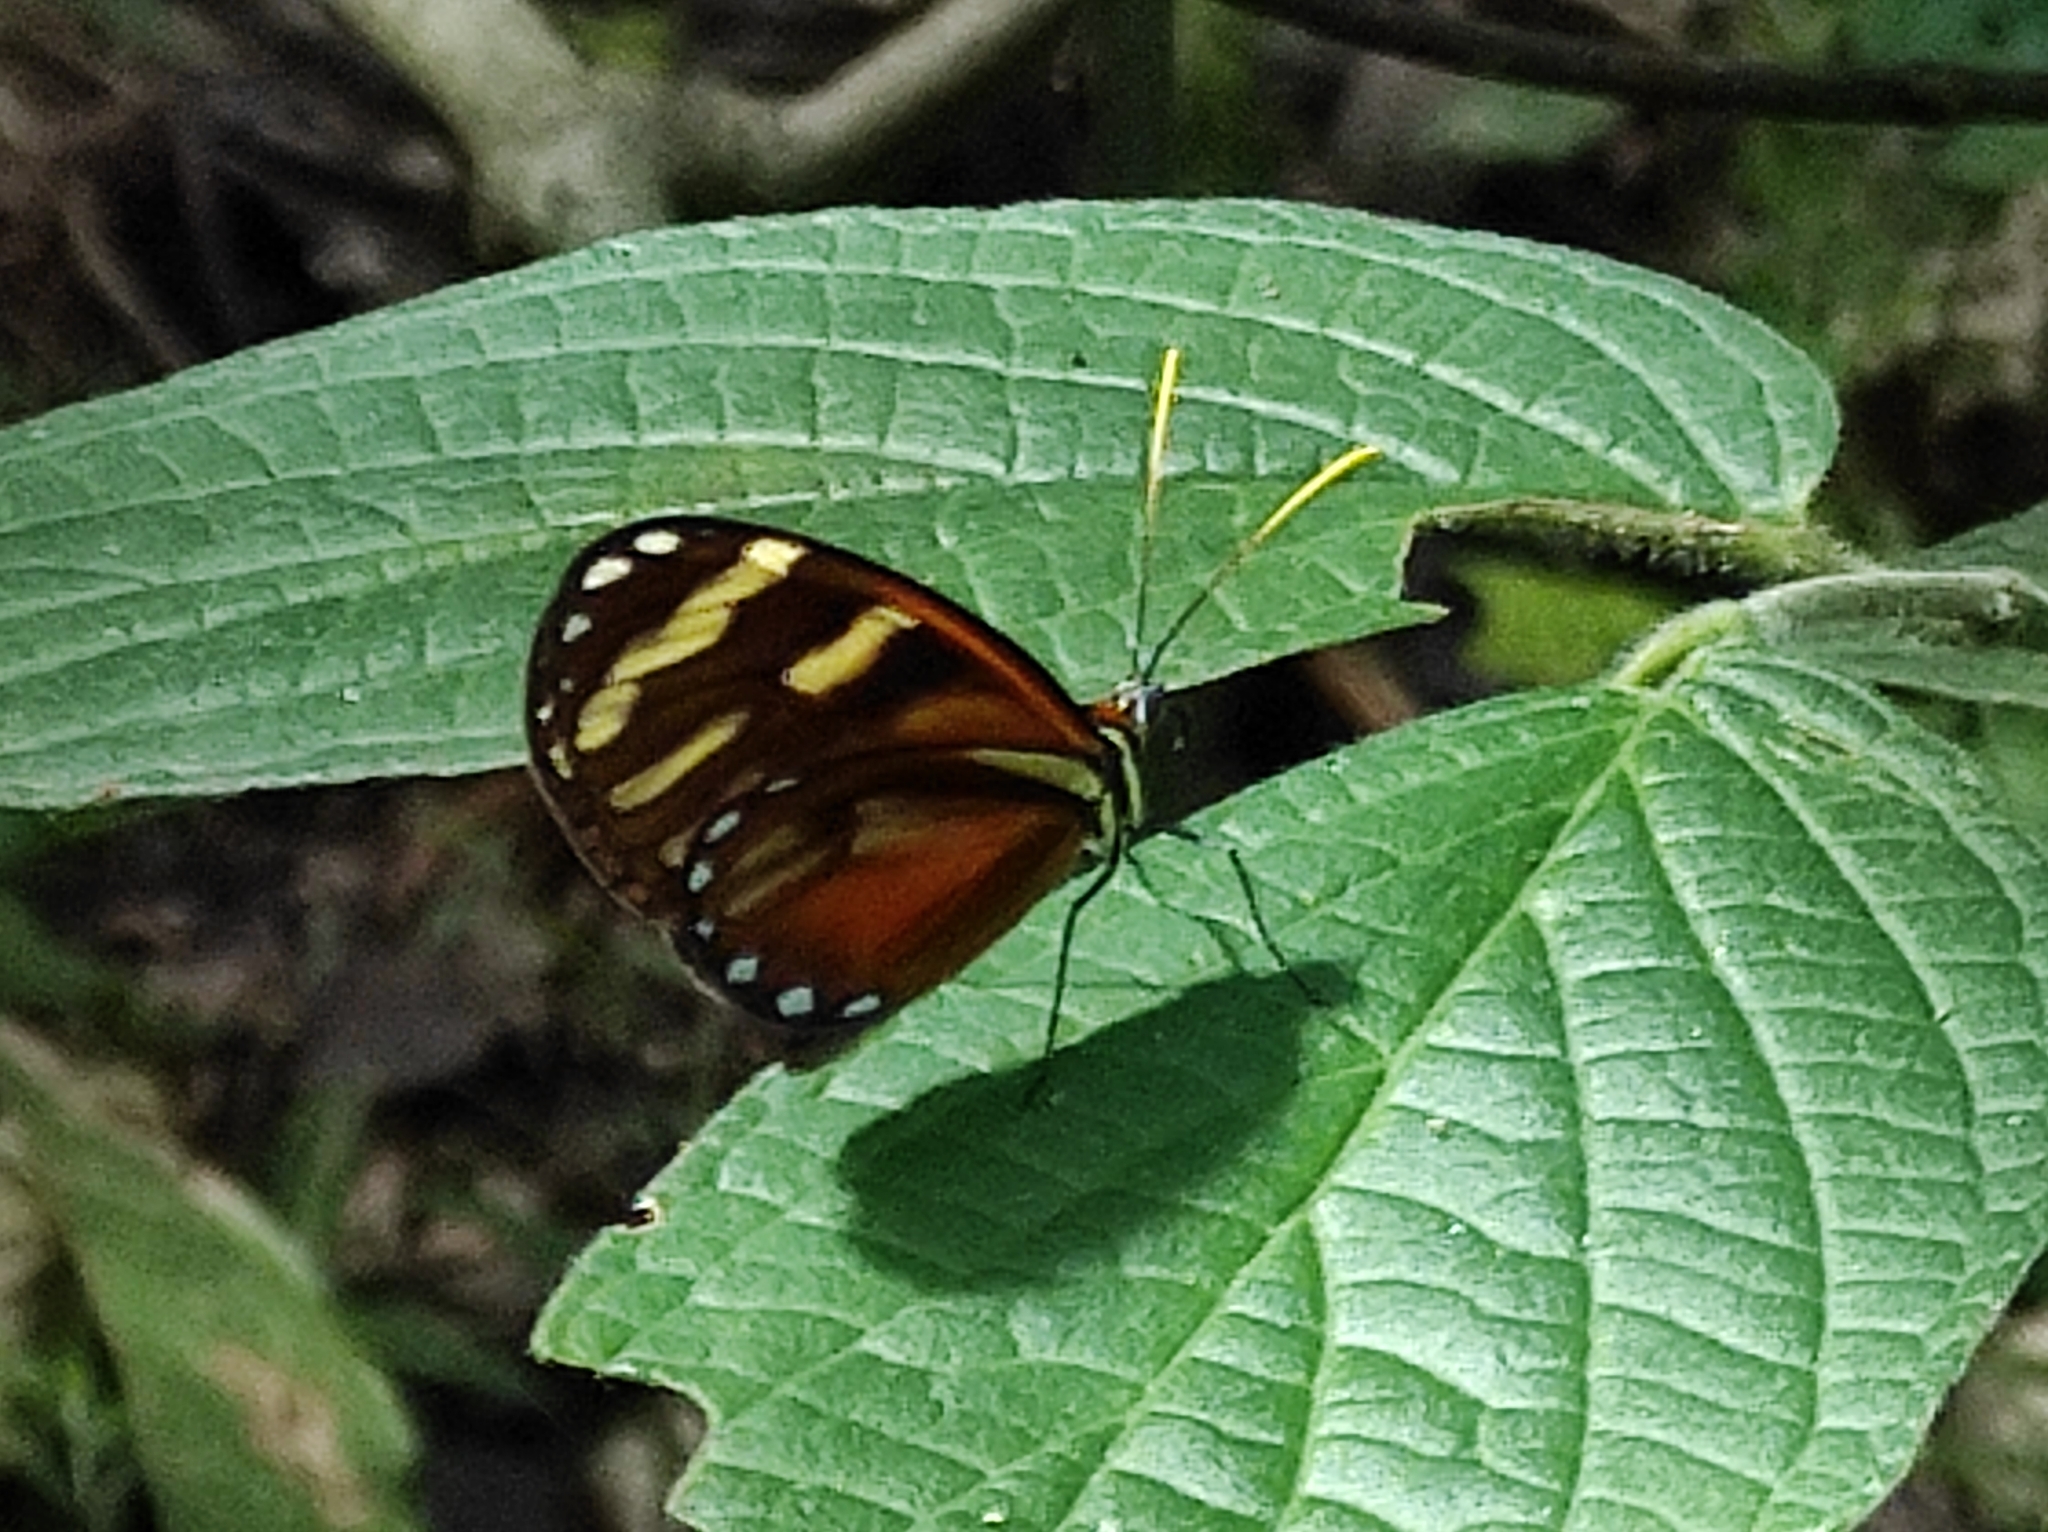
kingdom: Animalia
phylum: Arthropoda
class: Insecta
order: Lepidoptera
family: Nymphalidae
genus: Ithomia
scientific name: Ithomia heraldica
